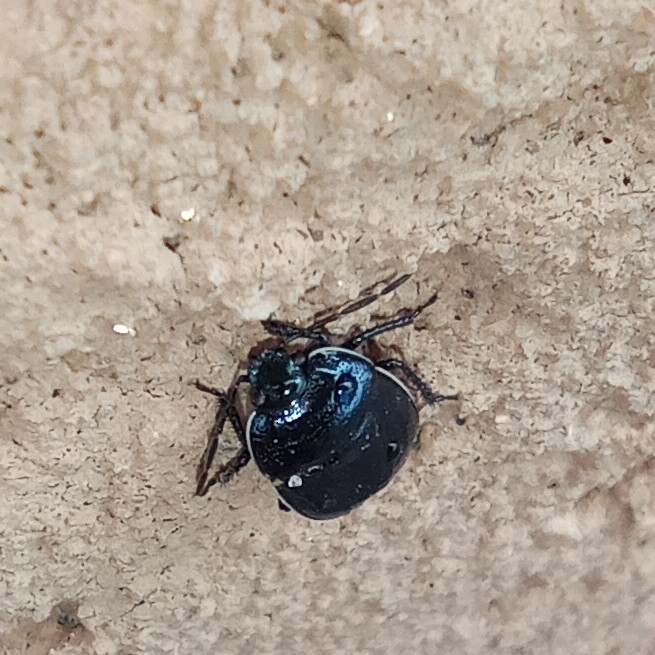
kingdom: Animalia
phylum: Arthropoda
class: Insecta
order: Hemiptera
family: Cydnidae
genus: Canthophorus
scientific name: Canthophorus melanopterus
